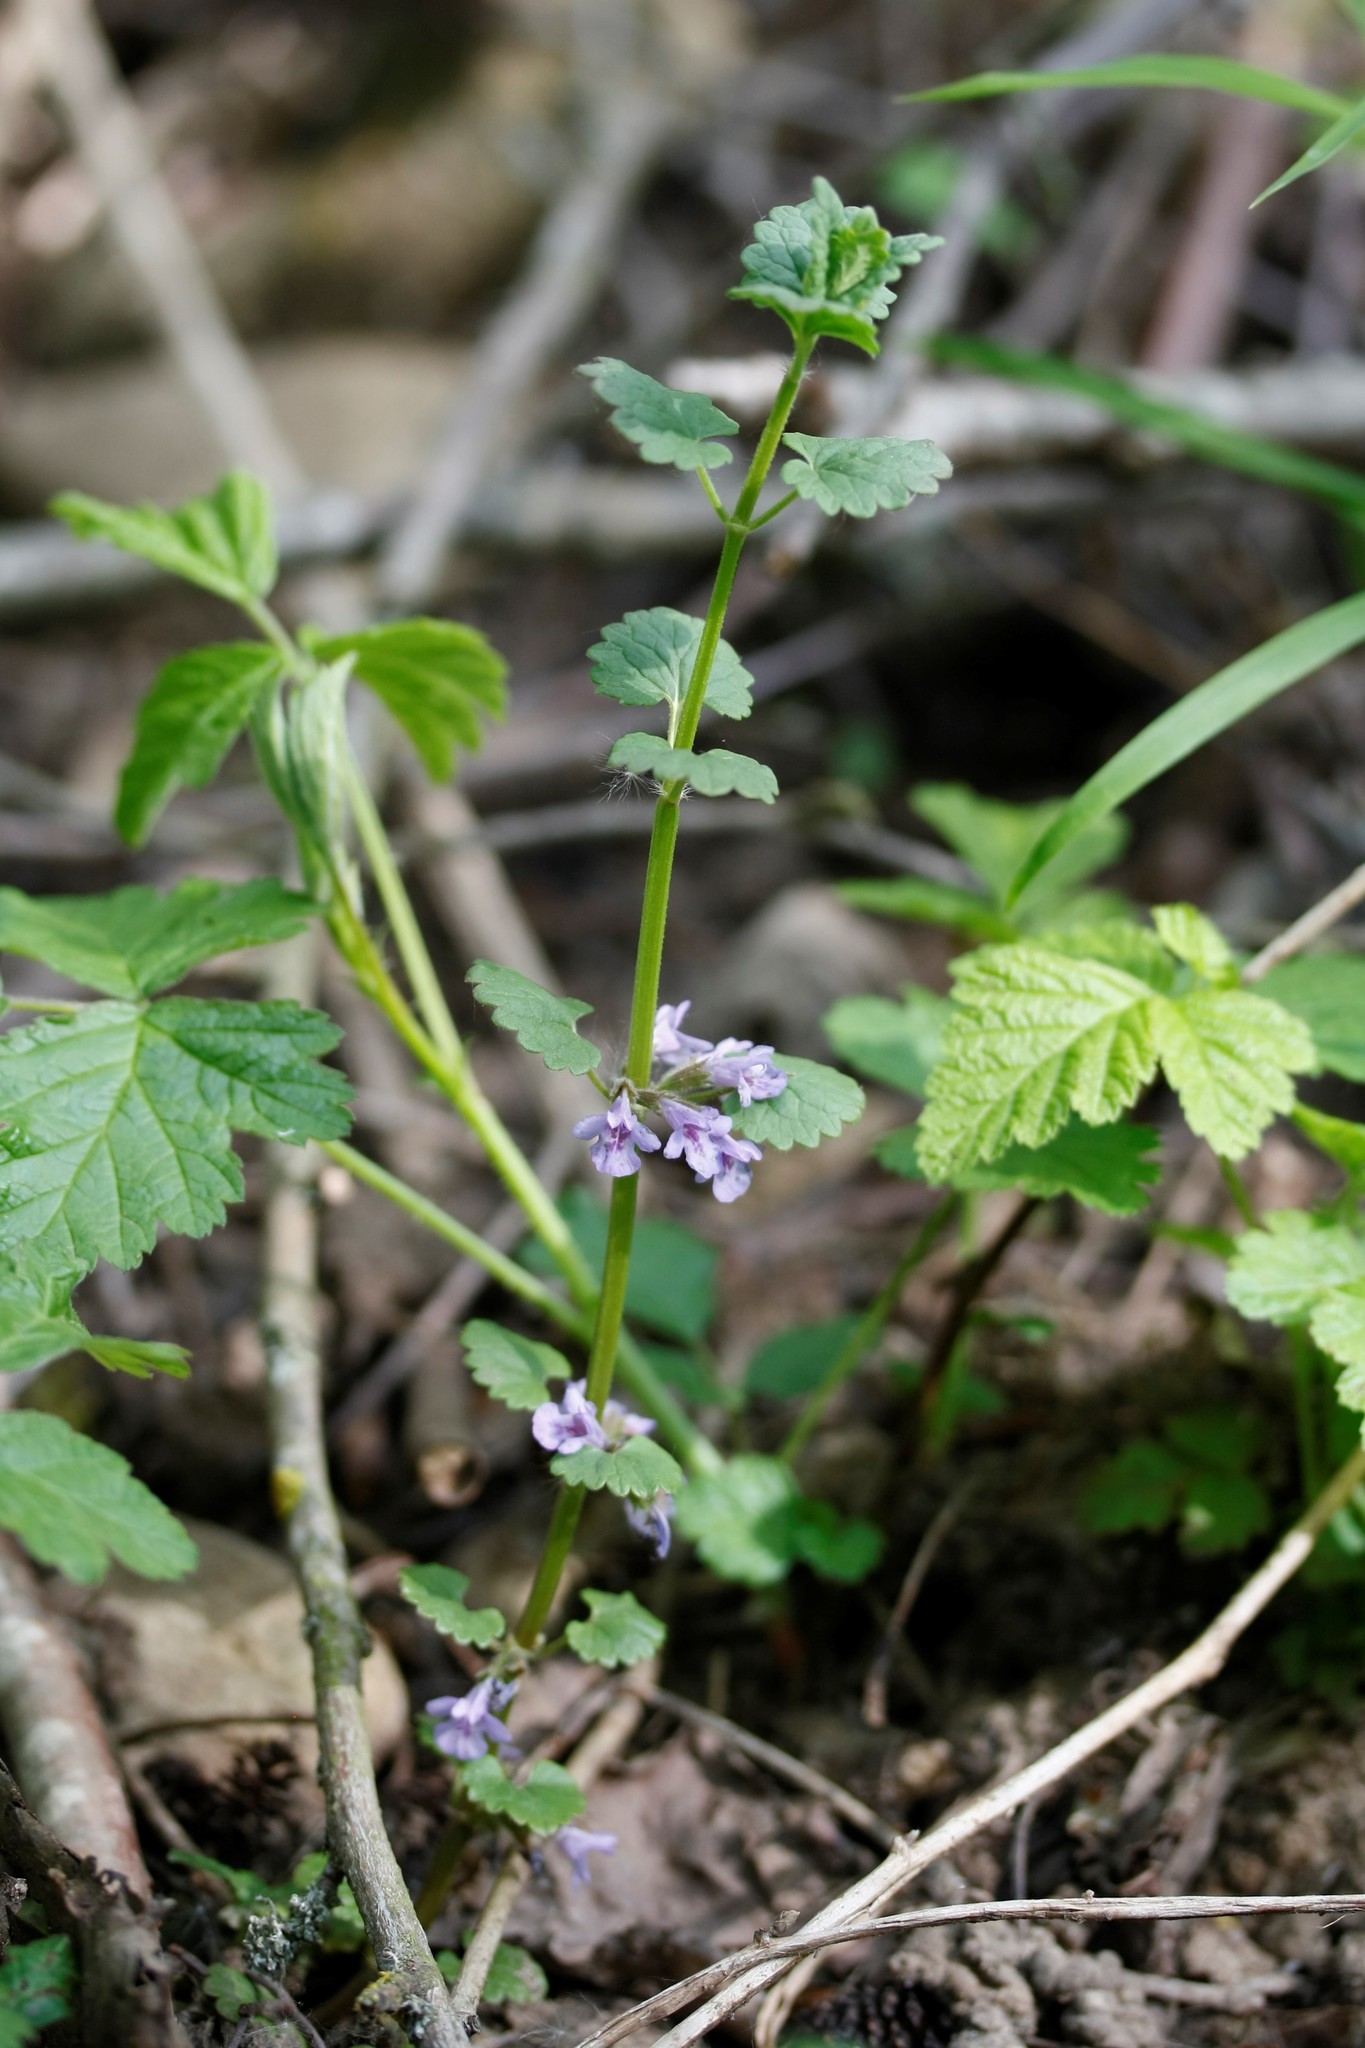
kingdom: Plantae
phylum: Tracheophyta
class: Magnoliopsida
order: Lamiales
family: Lamiaceae
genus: Glechoma
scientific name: Glechoma hederacea
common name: Ground ivy
